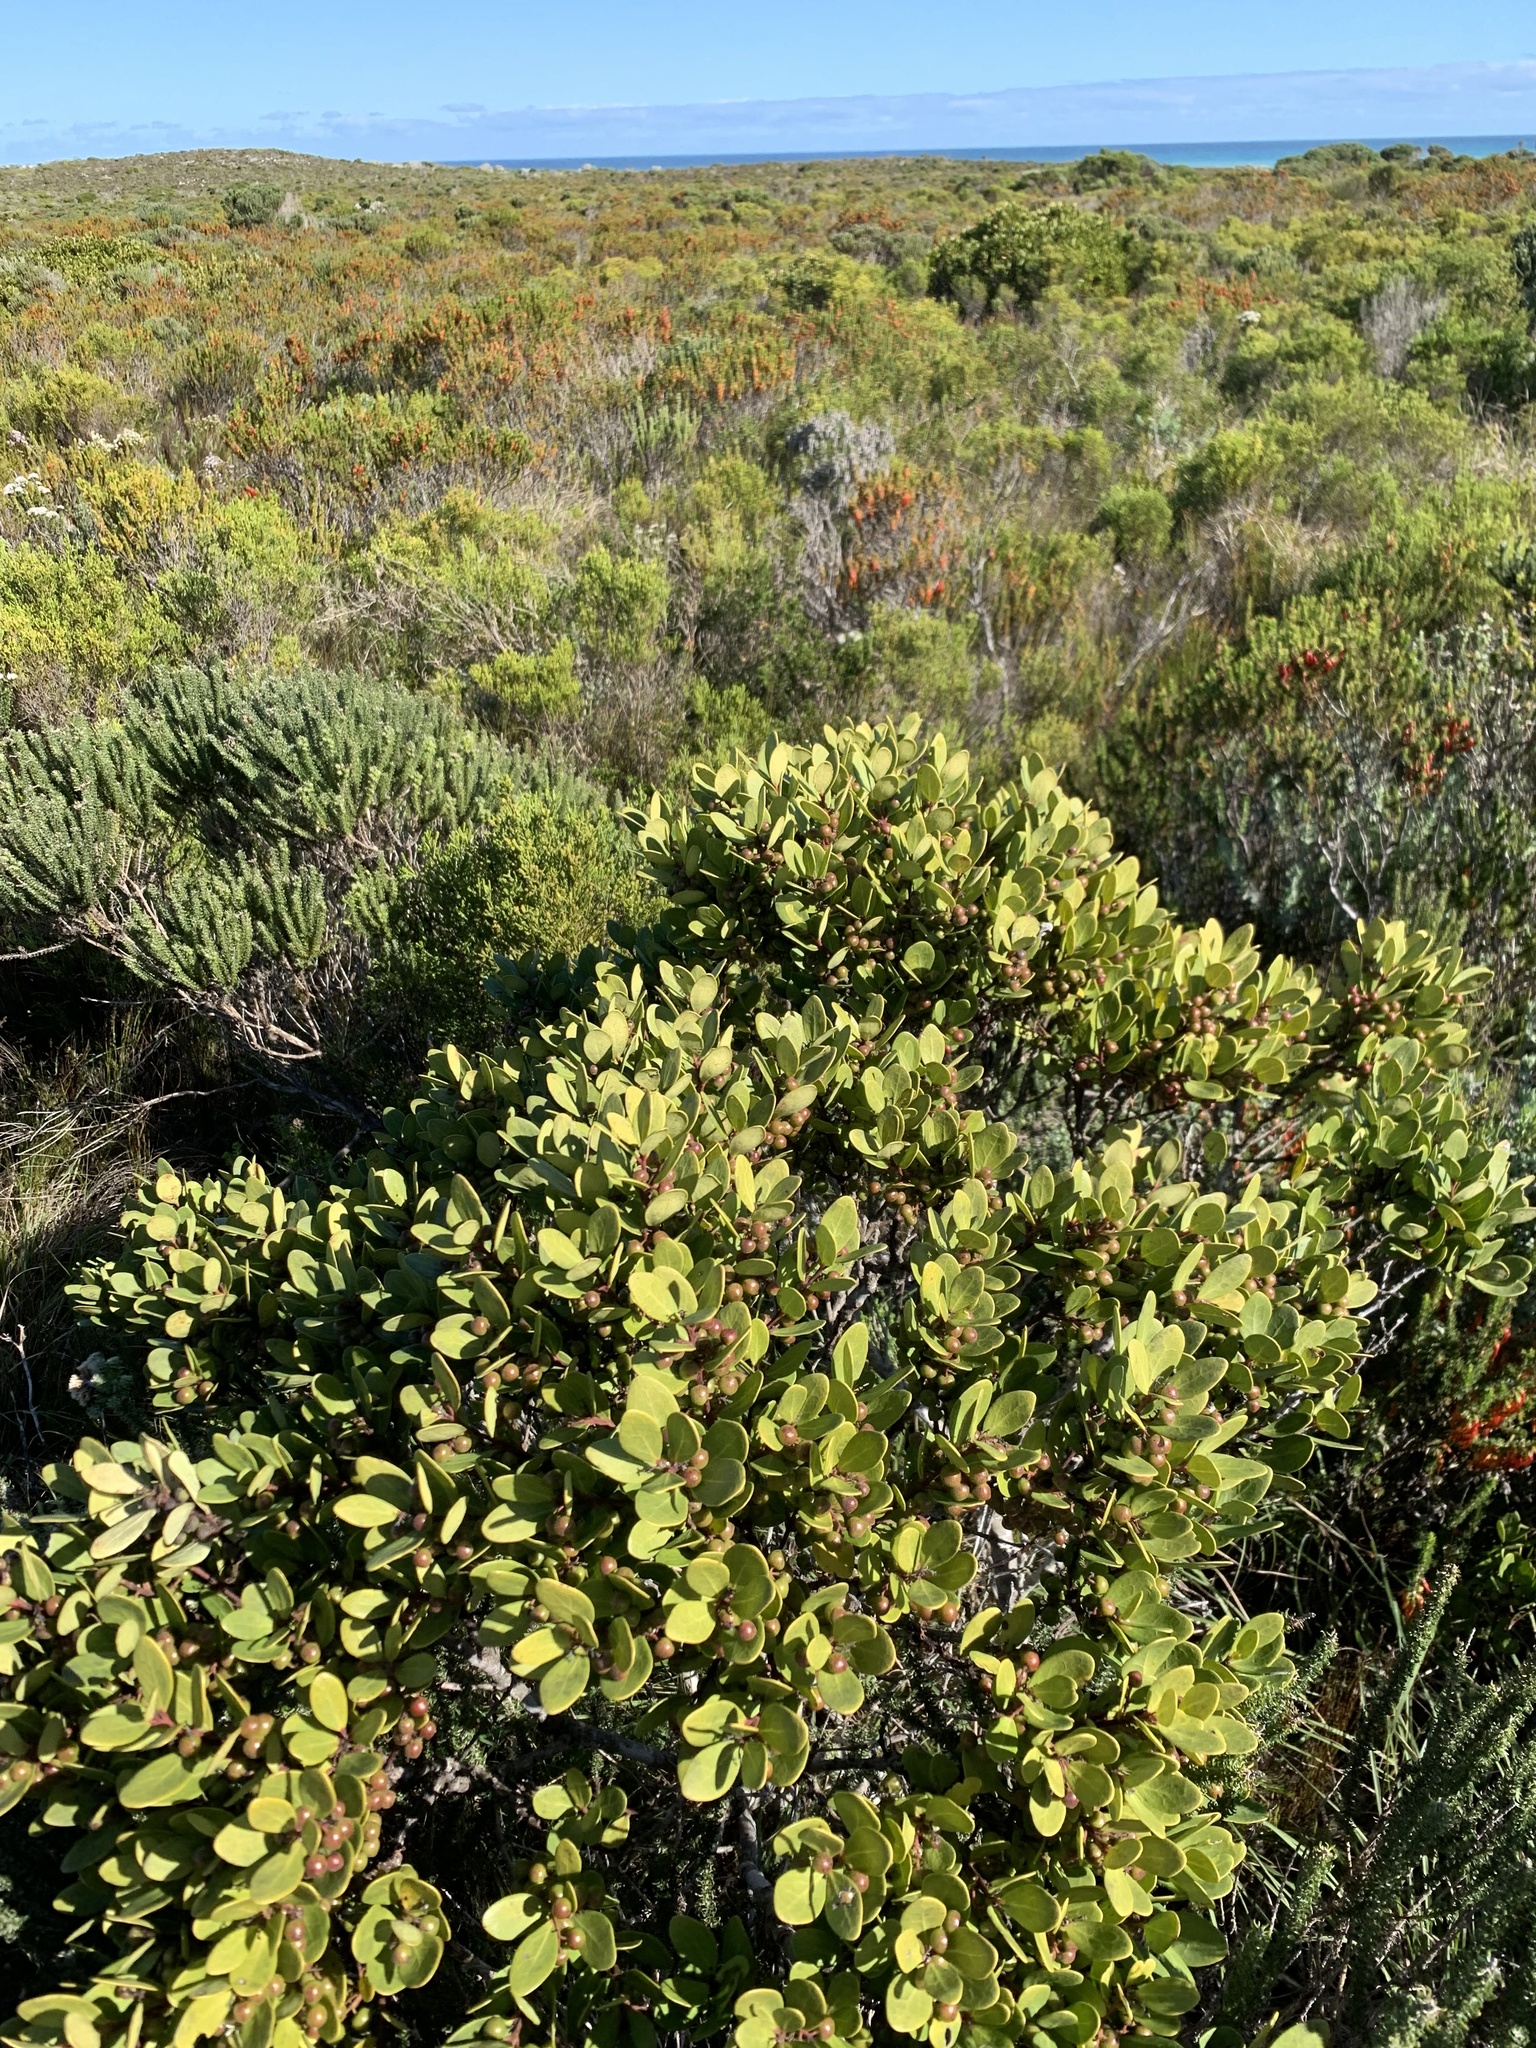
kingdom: Plantae
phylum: Tracheophyta
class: Magnoliopsida
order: Ericales
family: Ebenaceae
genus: Euclea
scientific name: Euclea racemosa
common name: Dune guarri
